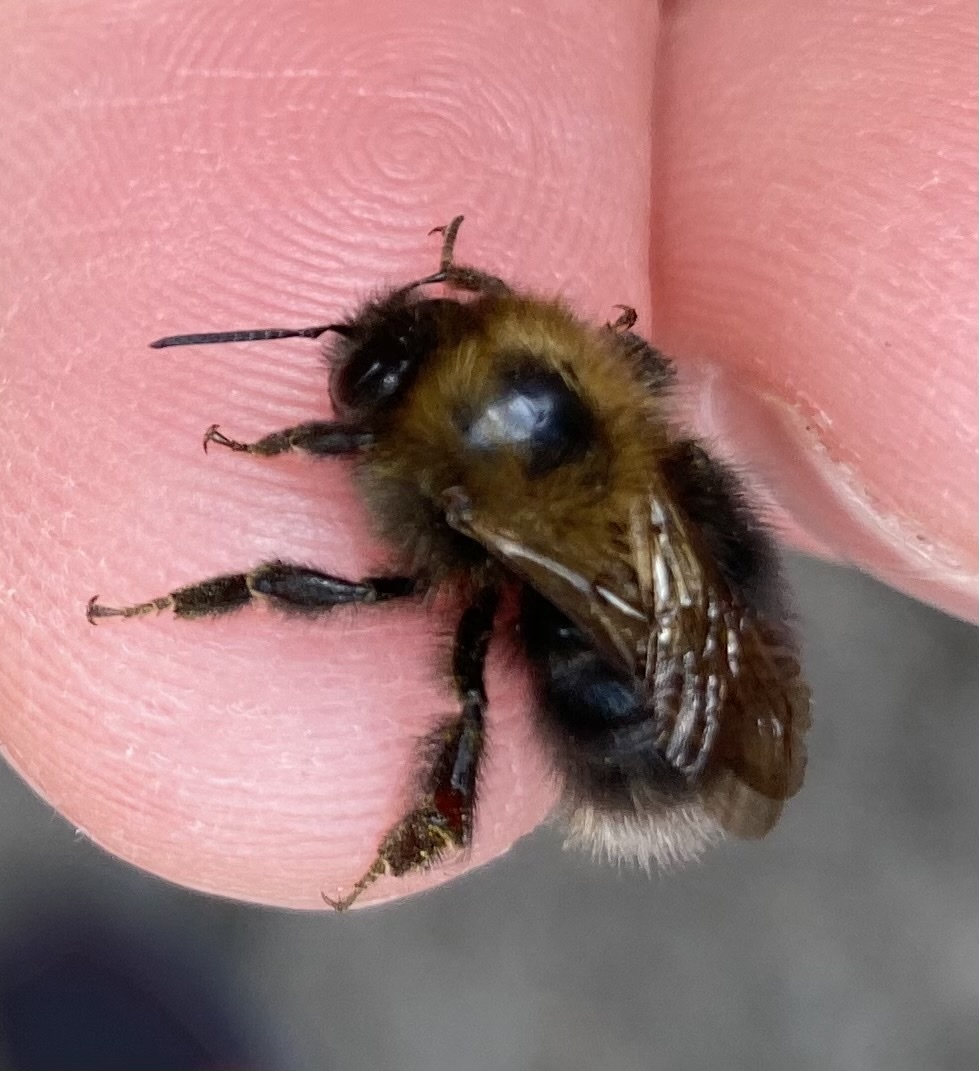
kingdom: Animalia
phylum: Arthropoda
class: Insecta
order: Hymenoptera
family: Apidae
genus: Bombus
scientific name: Bombus hypnorum
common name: New garden bumblebee
